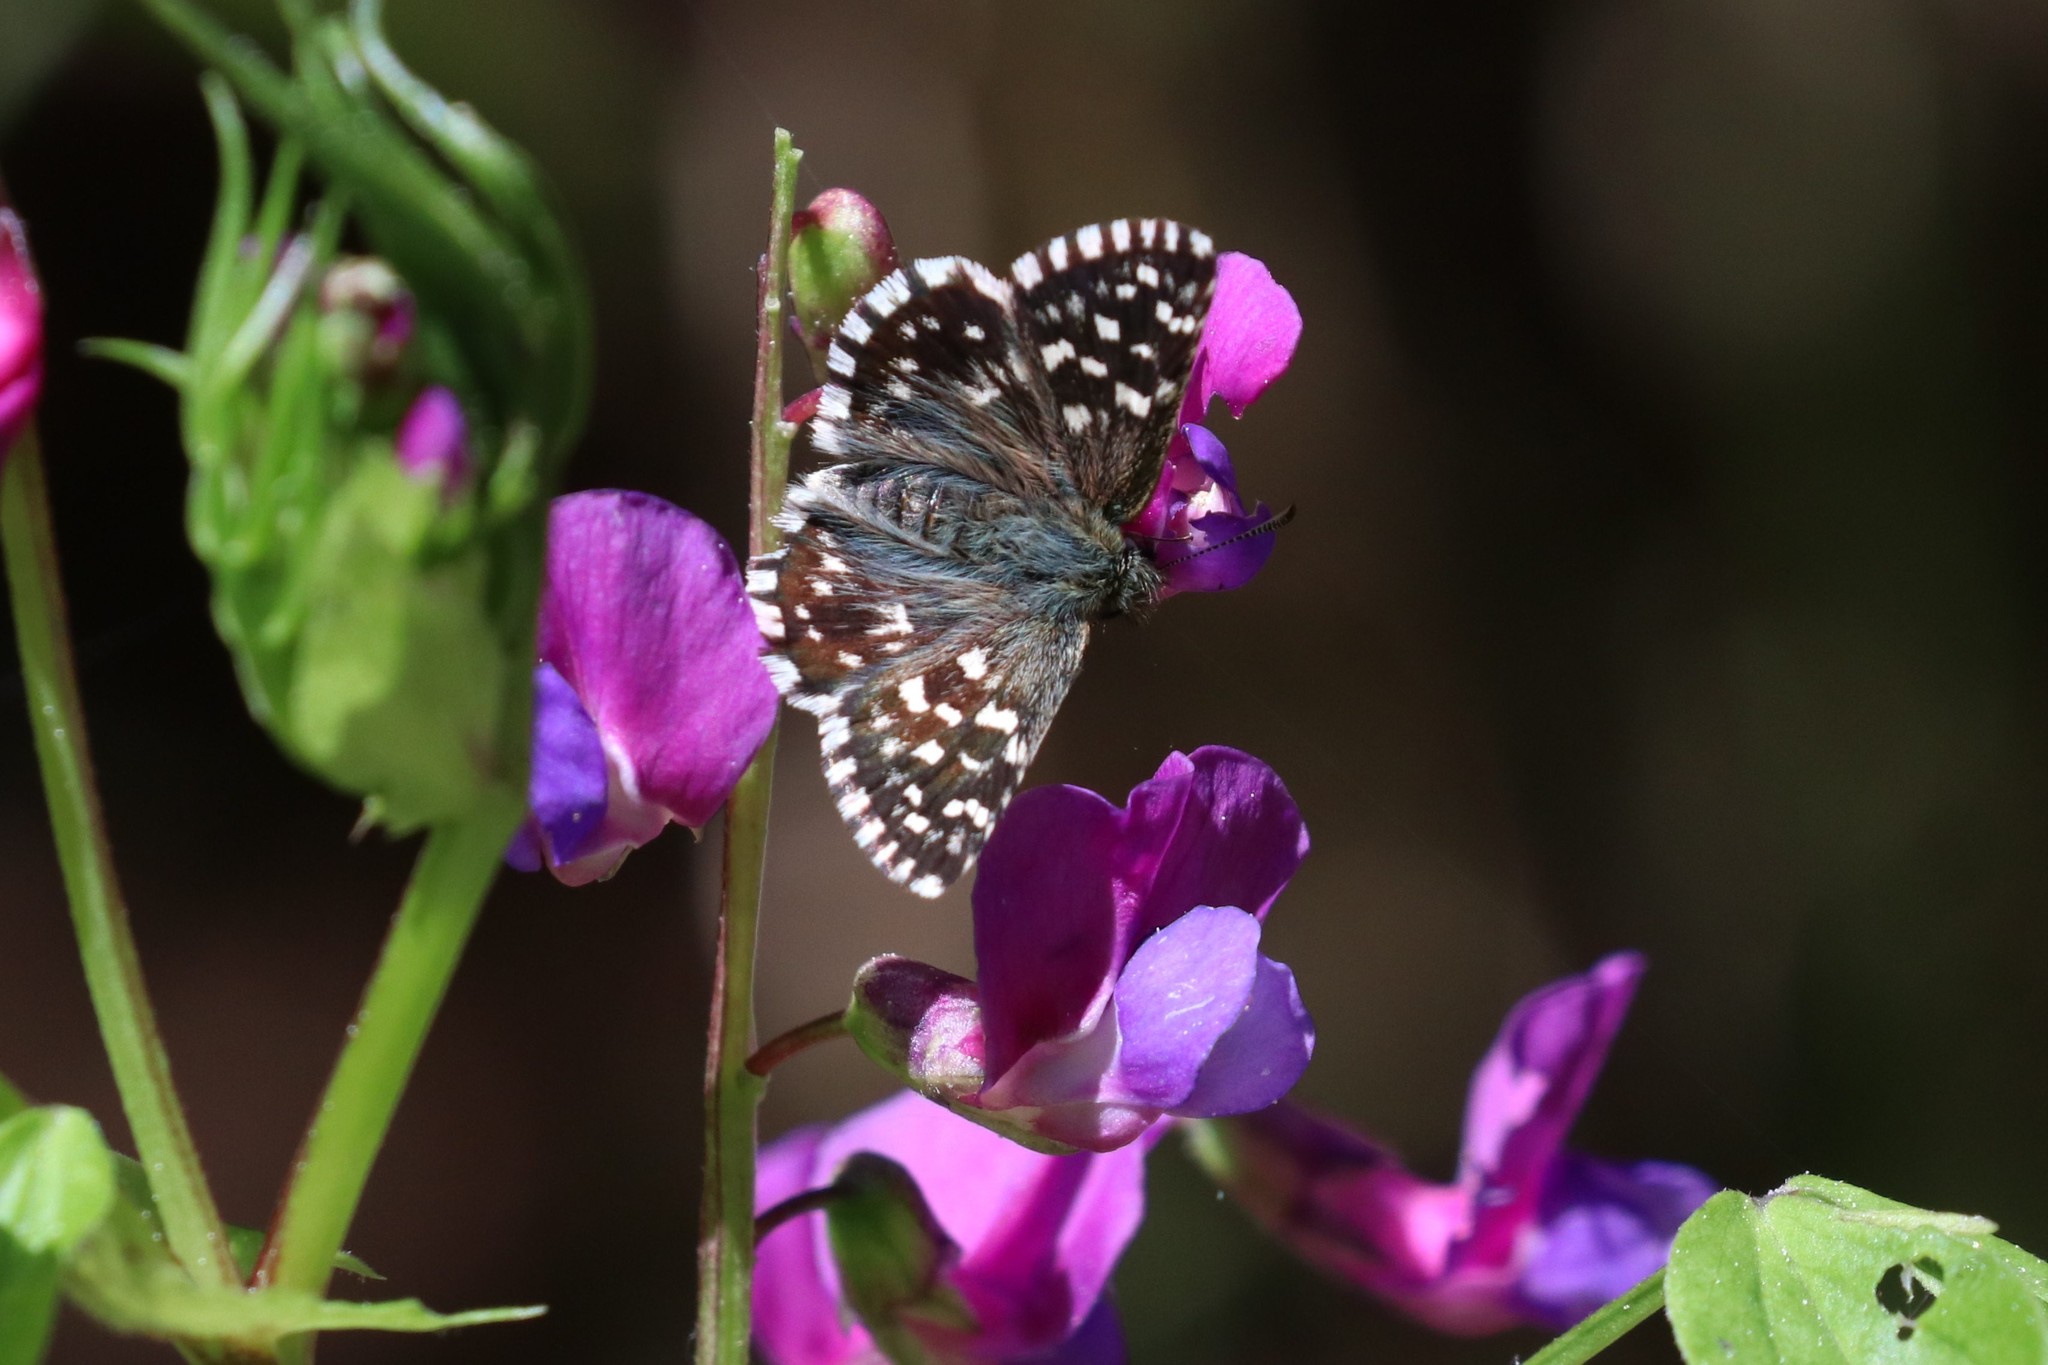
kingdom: Animalia
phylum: Arthropoda
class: Insecta
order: Lepidoptera
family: Hesperiidae
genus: Pyrgus
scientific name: Pyrgus malvae
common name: Grizzled skipper
